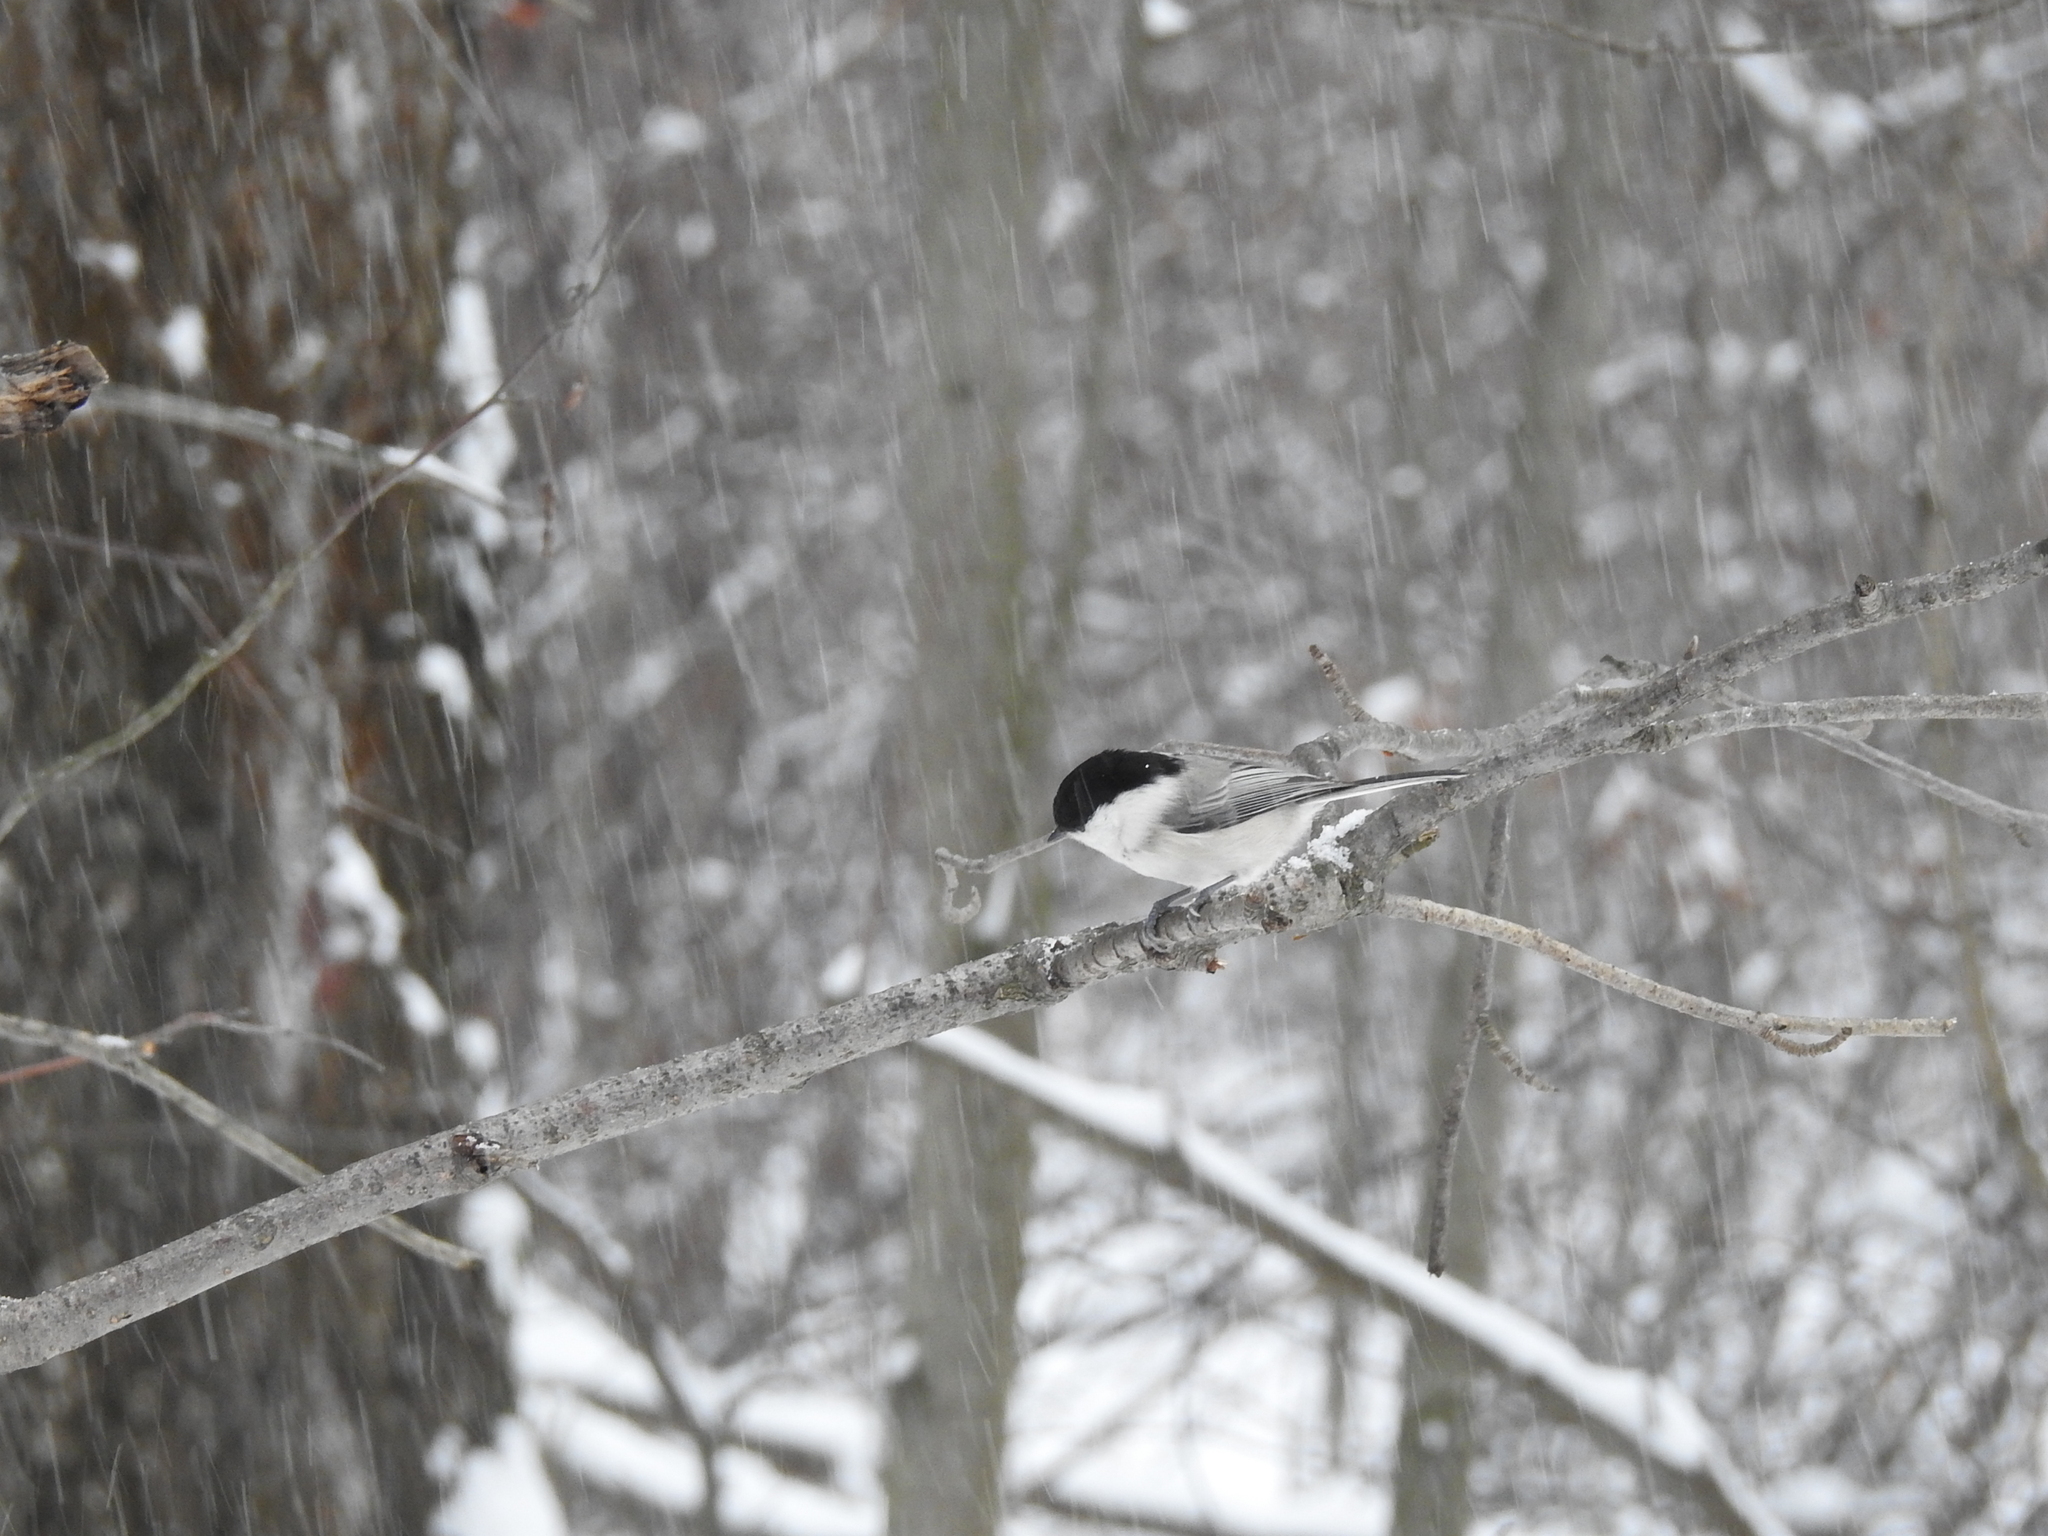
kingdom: Animalia
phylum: Chordata
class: Aves
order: Passeriformes
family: Paridae
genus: Poecile
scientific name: Poecile montanus
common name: Willow tit
